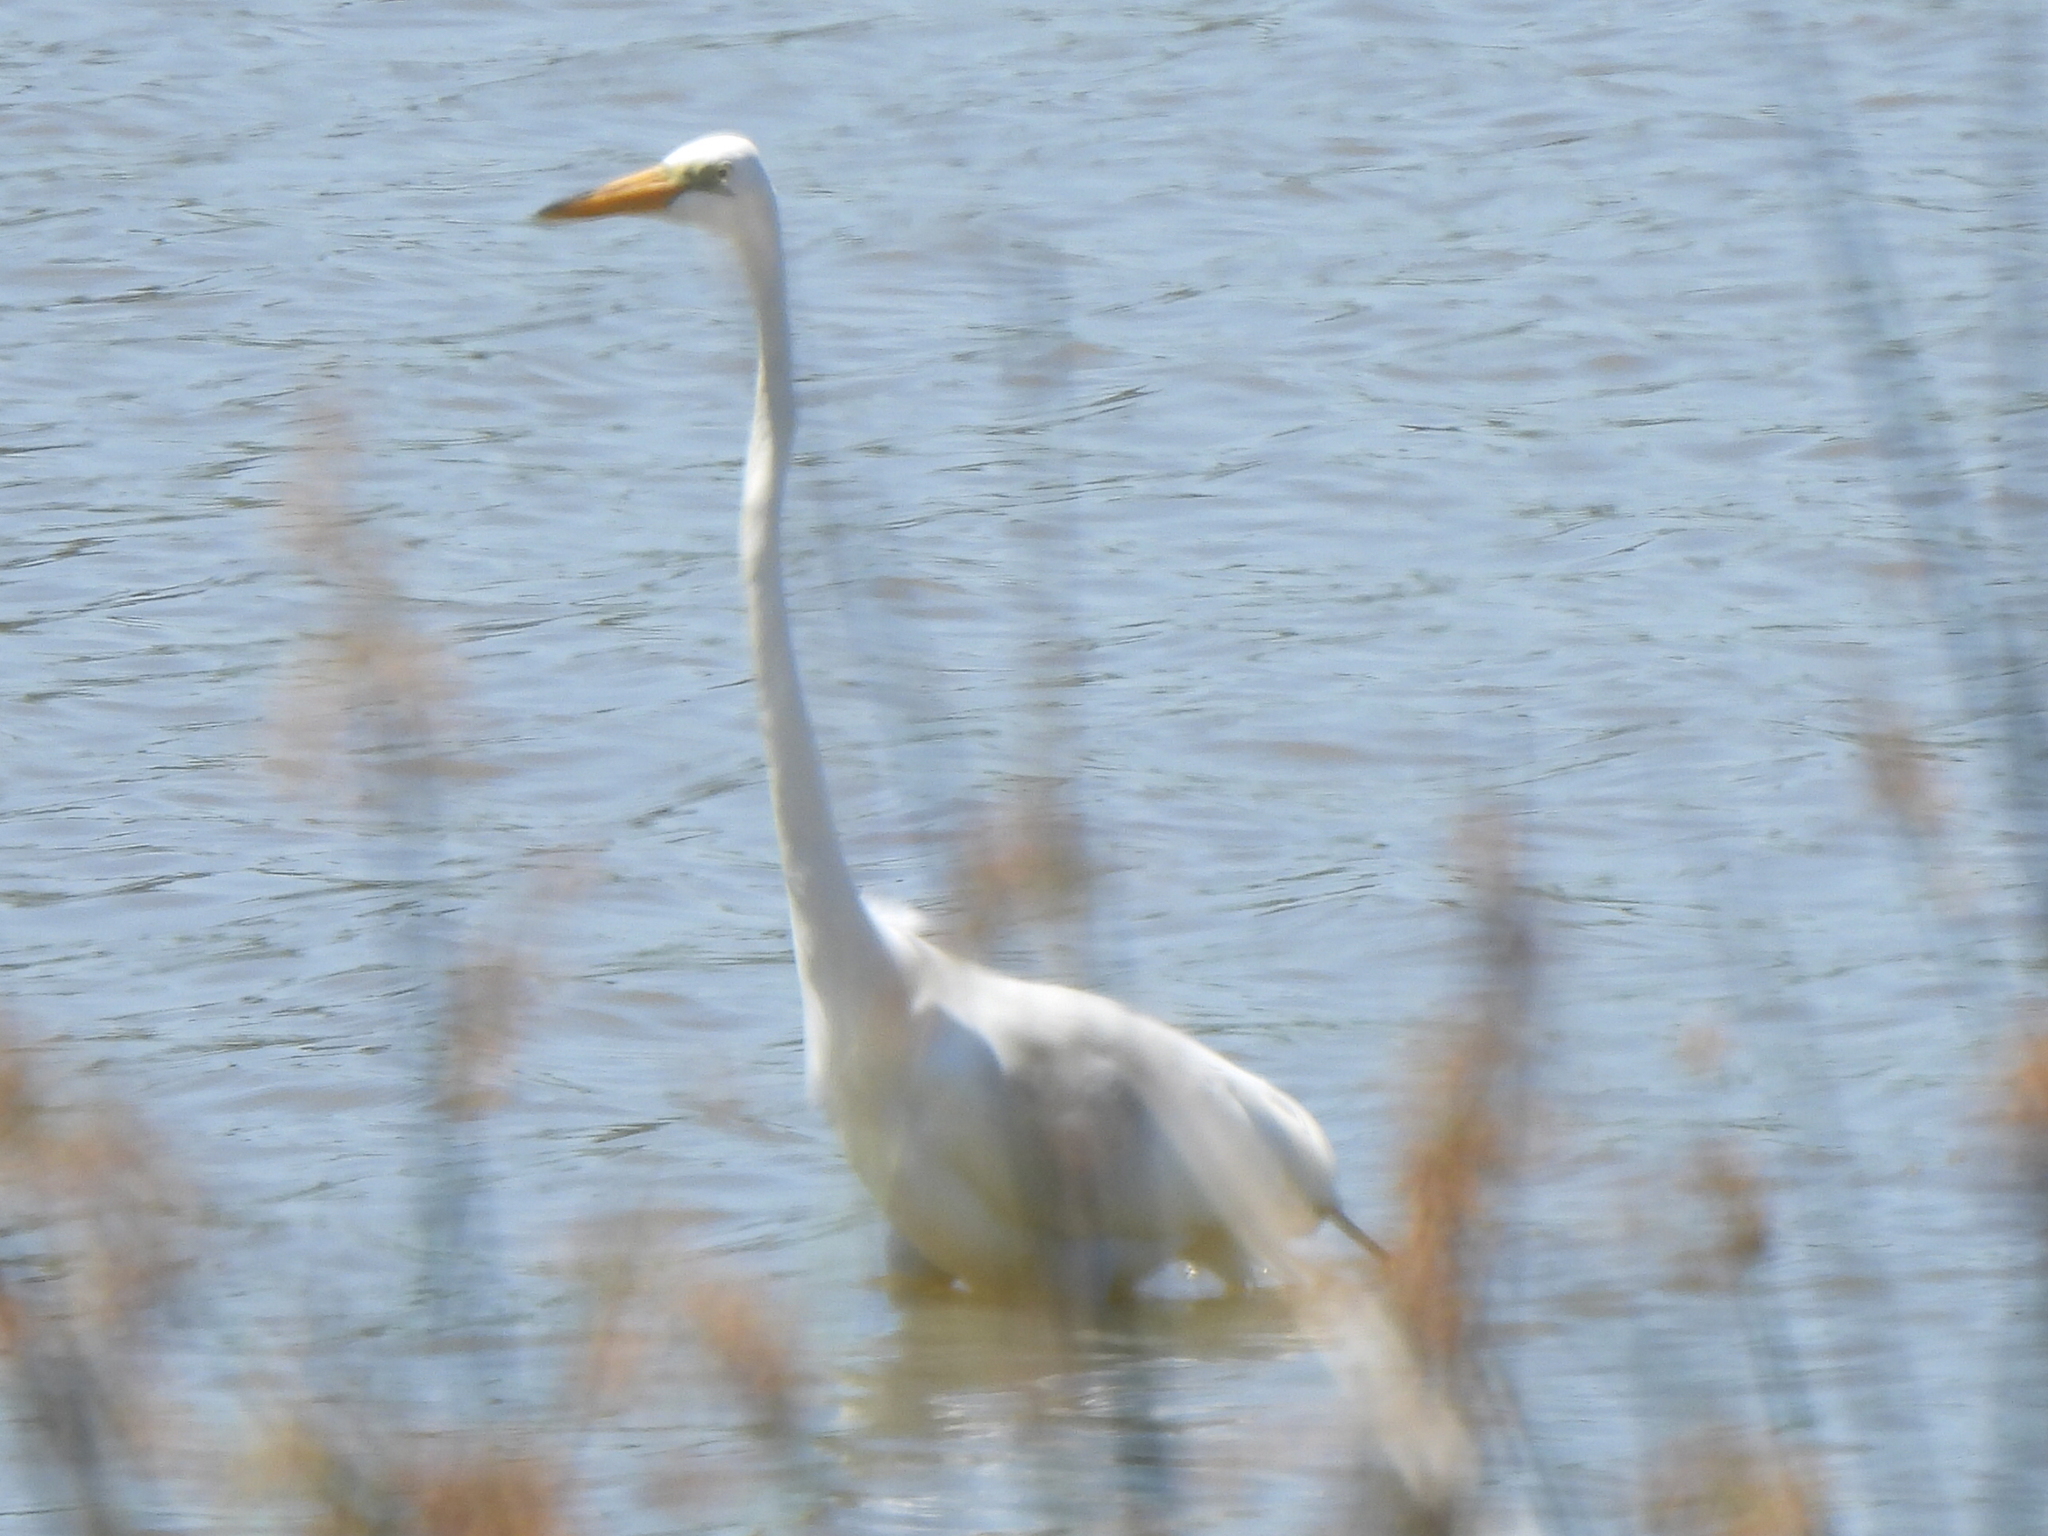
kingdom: Animalia
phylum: Chordata
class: Aves
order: Pelecaniformes
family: Ardeidae
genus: Ardea
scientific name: Ardea alba
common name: Great egret
